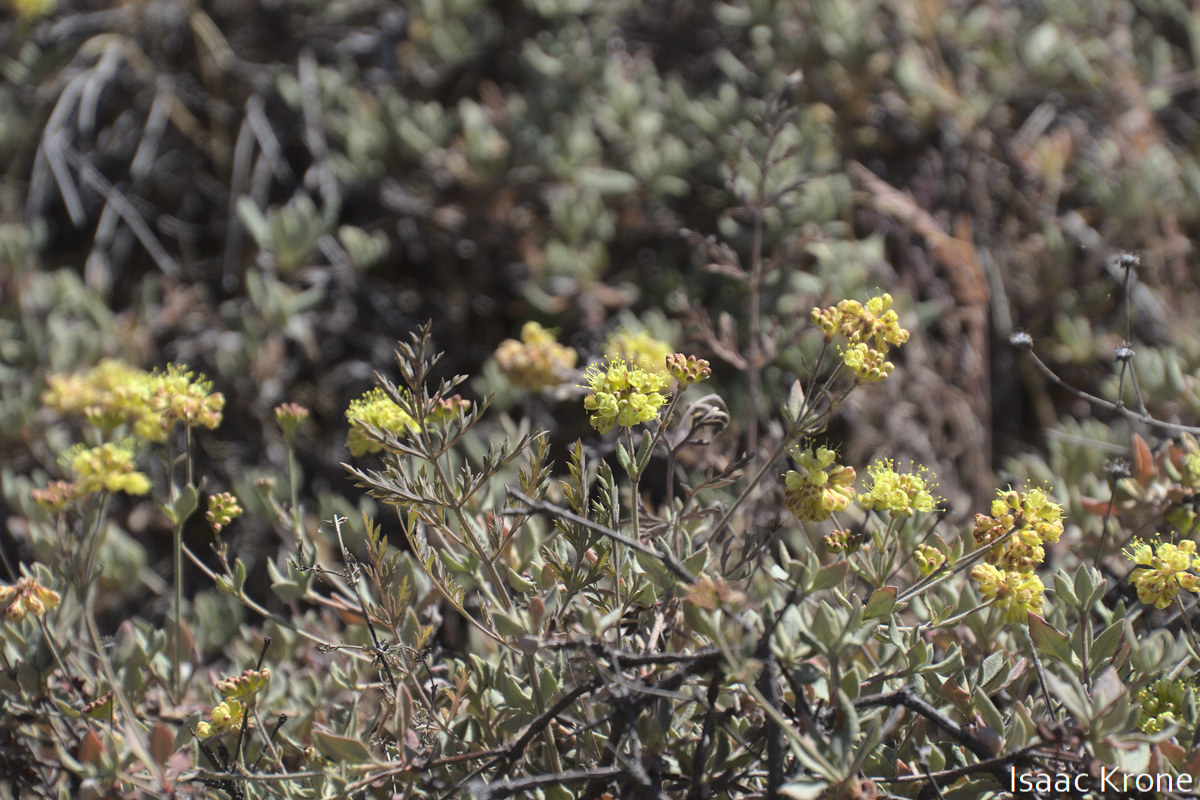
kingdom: Plantae
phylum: Tracheophyta
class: Magnoliopsida
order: Caryophyllales
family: Polygonaceae
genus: Eriogonum
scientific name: Eriogonum umbellatum
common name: Sulfur-buckwheat
